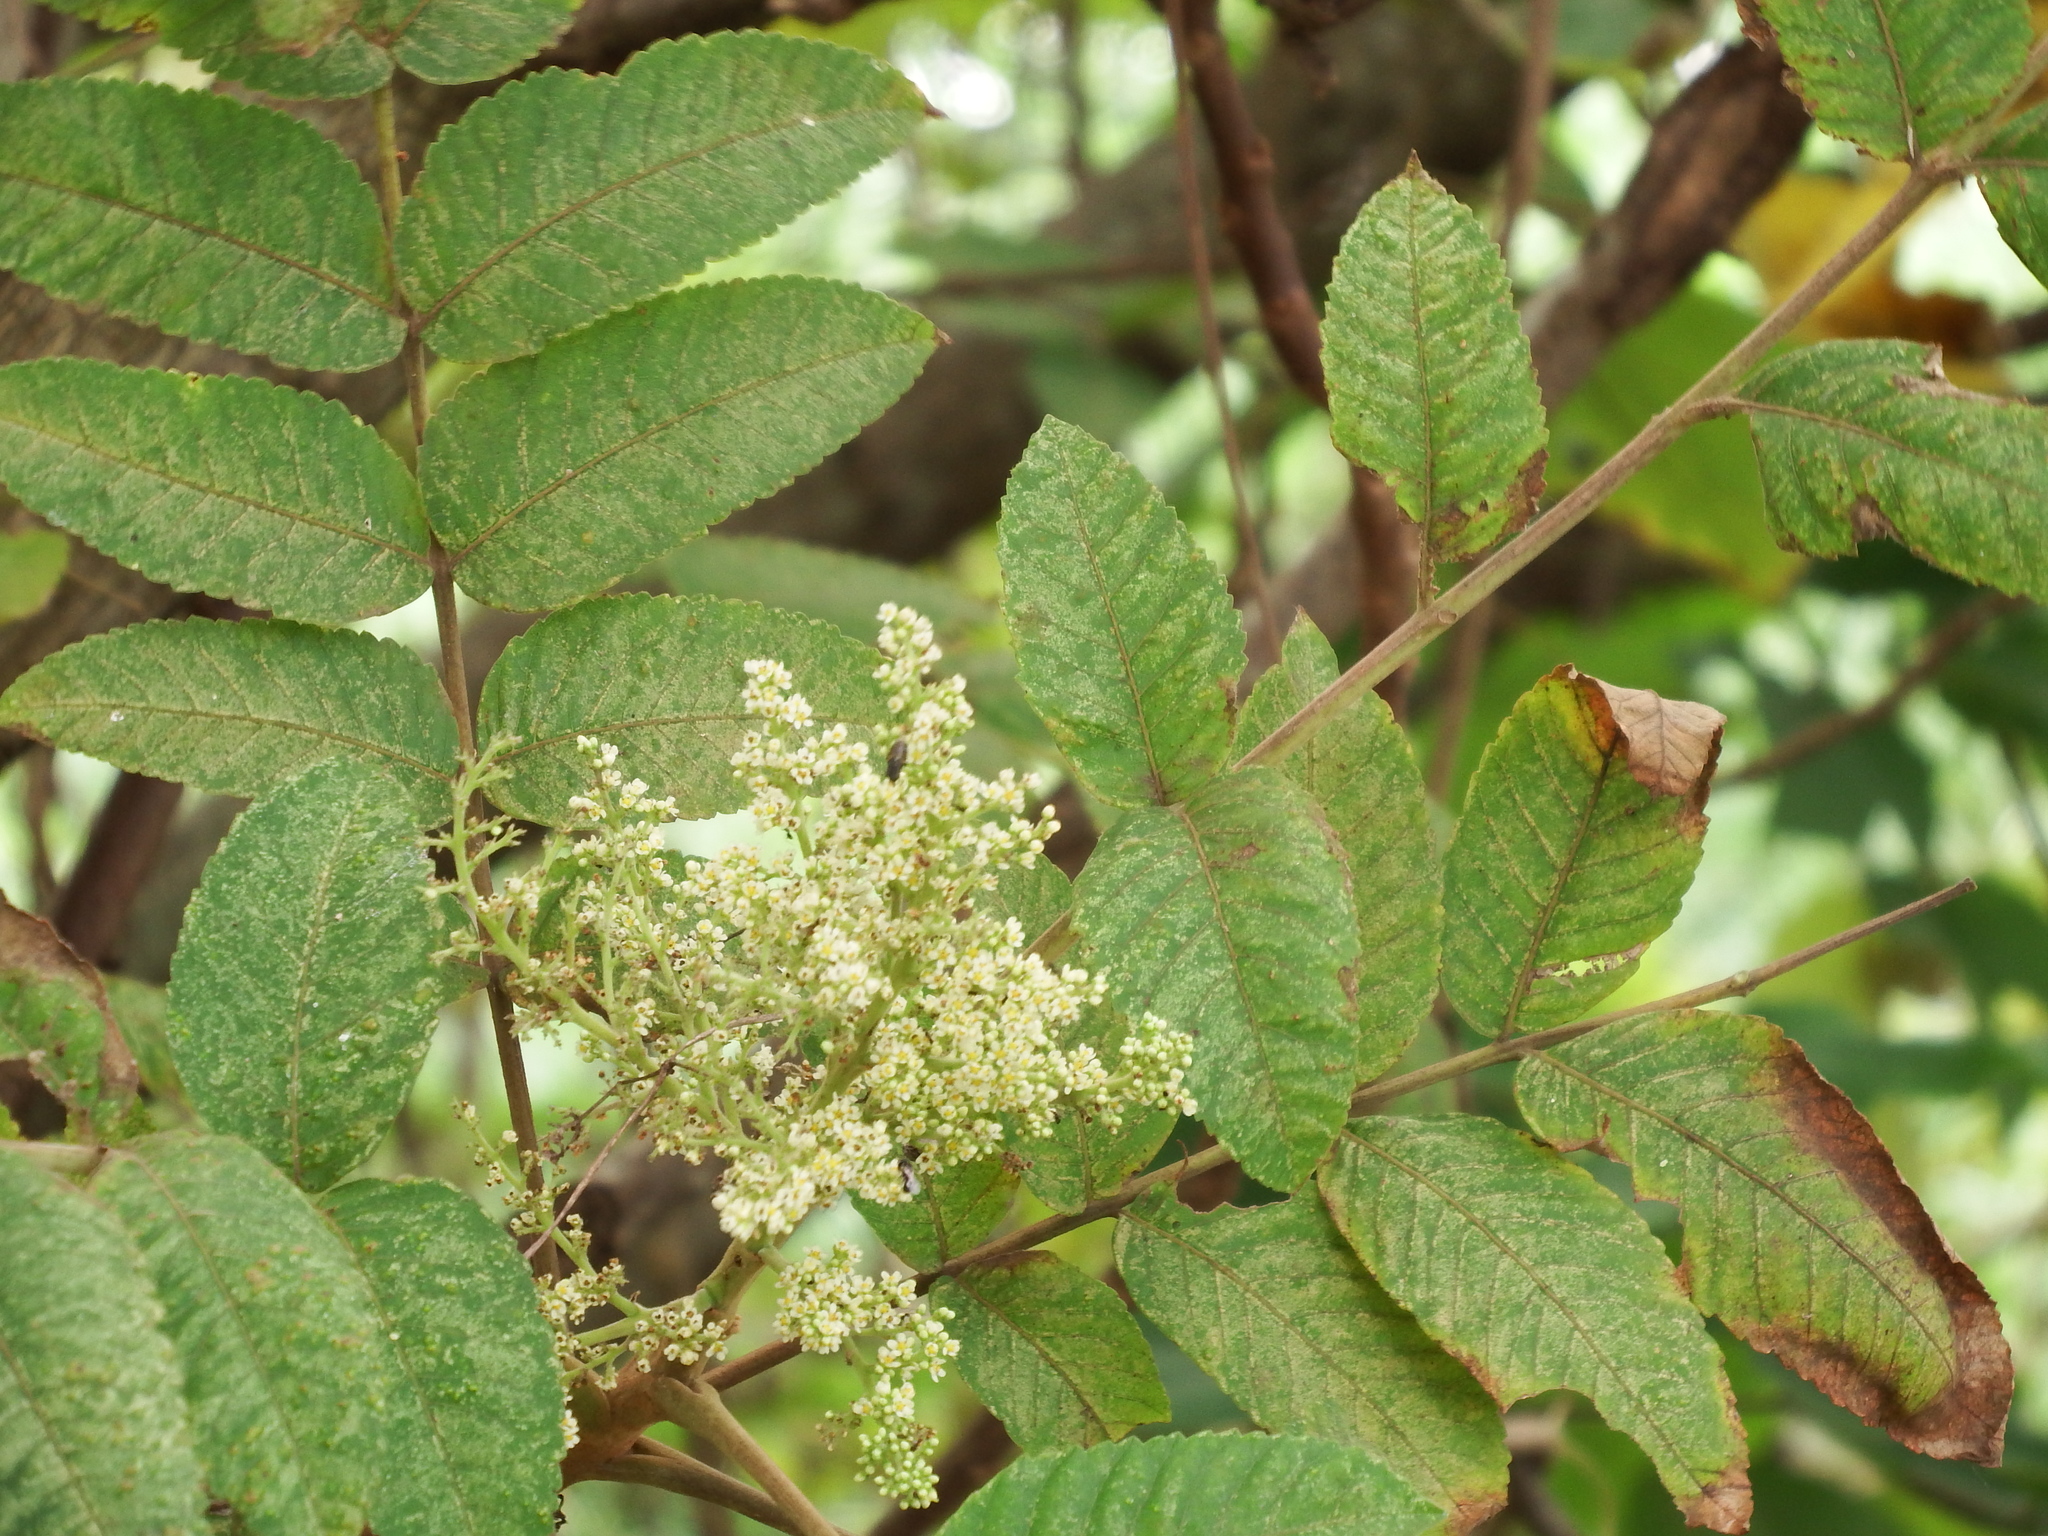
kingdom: Plantae
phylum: Tracheophyta
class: Magnoliopsida
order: Sapindales
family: Anacardiaceae
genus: Rhus
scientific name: Rhus chinensis
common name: Chinese gall
